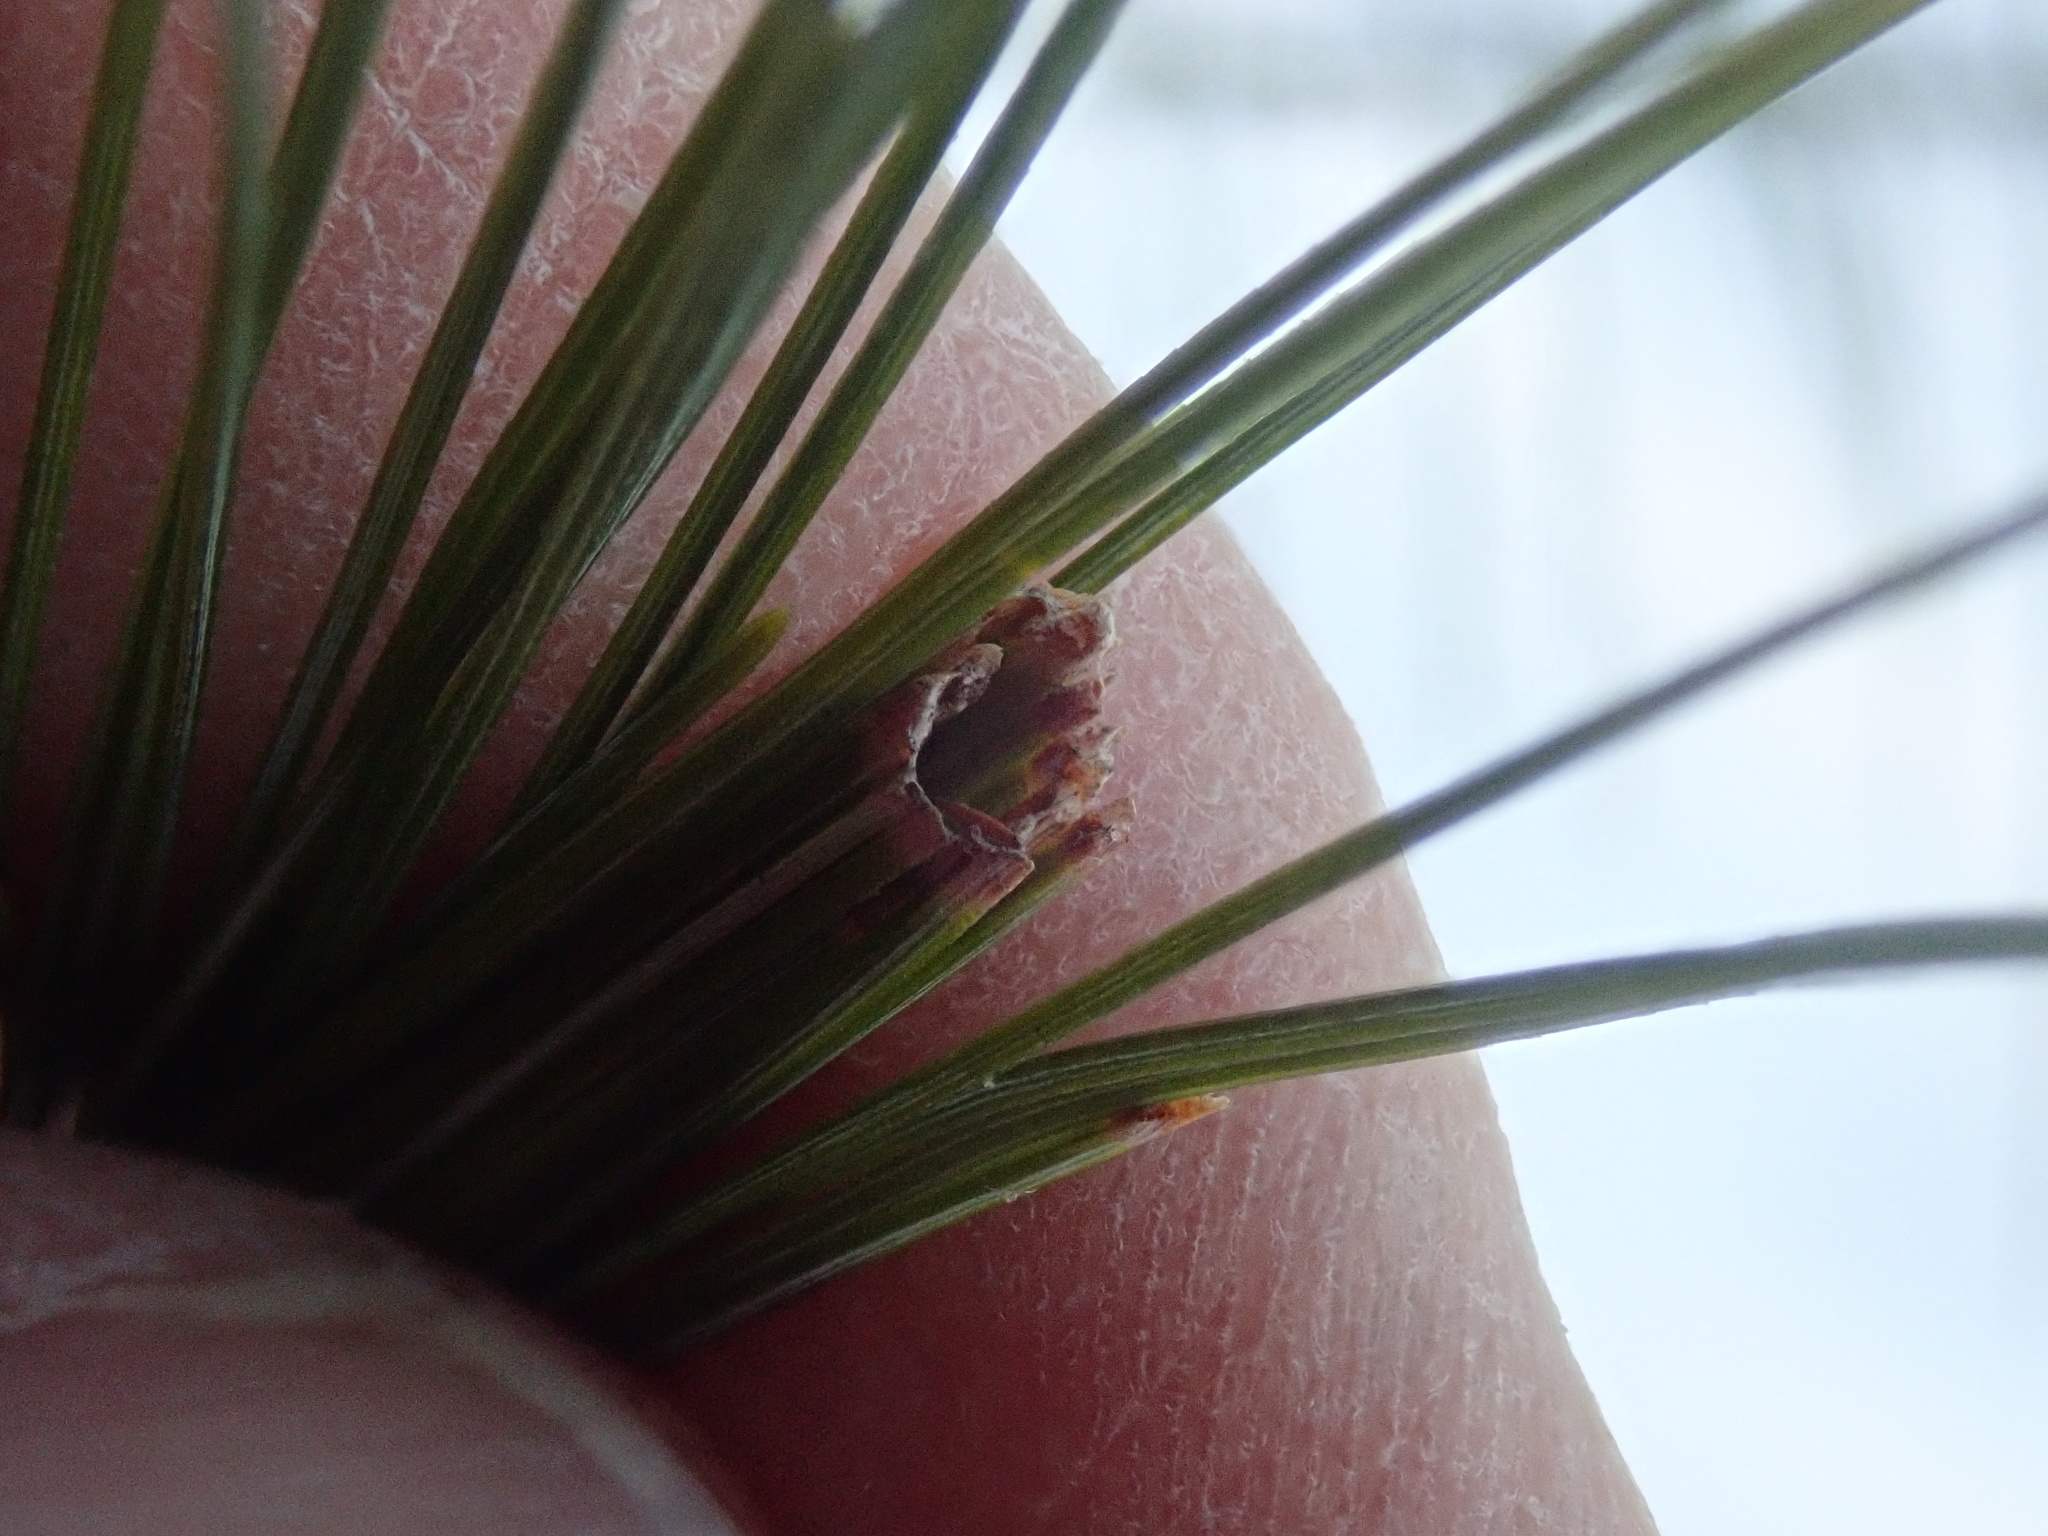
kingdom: Animalia
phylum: Arthropoda
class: Insecta
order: Lepidoptera
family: Tortricidae
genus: Argyrotaenia
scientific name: Argyrotaenia pinatubana
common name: Pine tube moth
